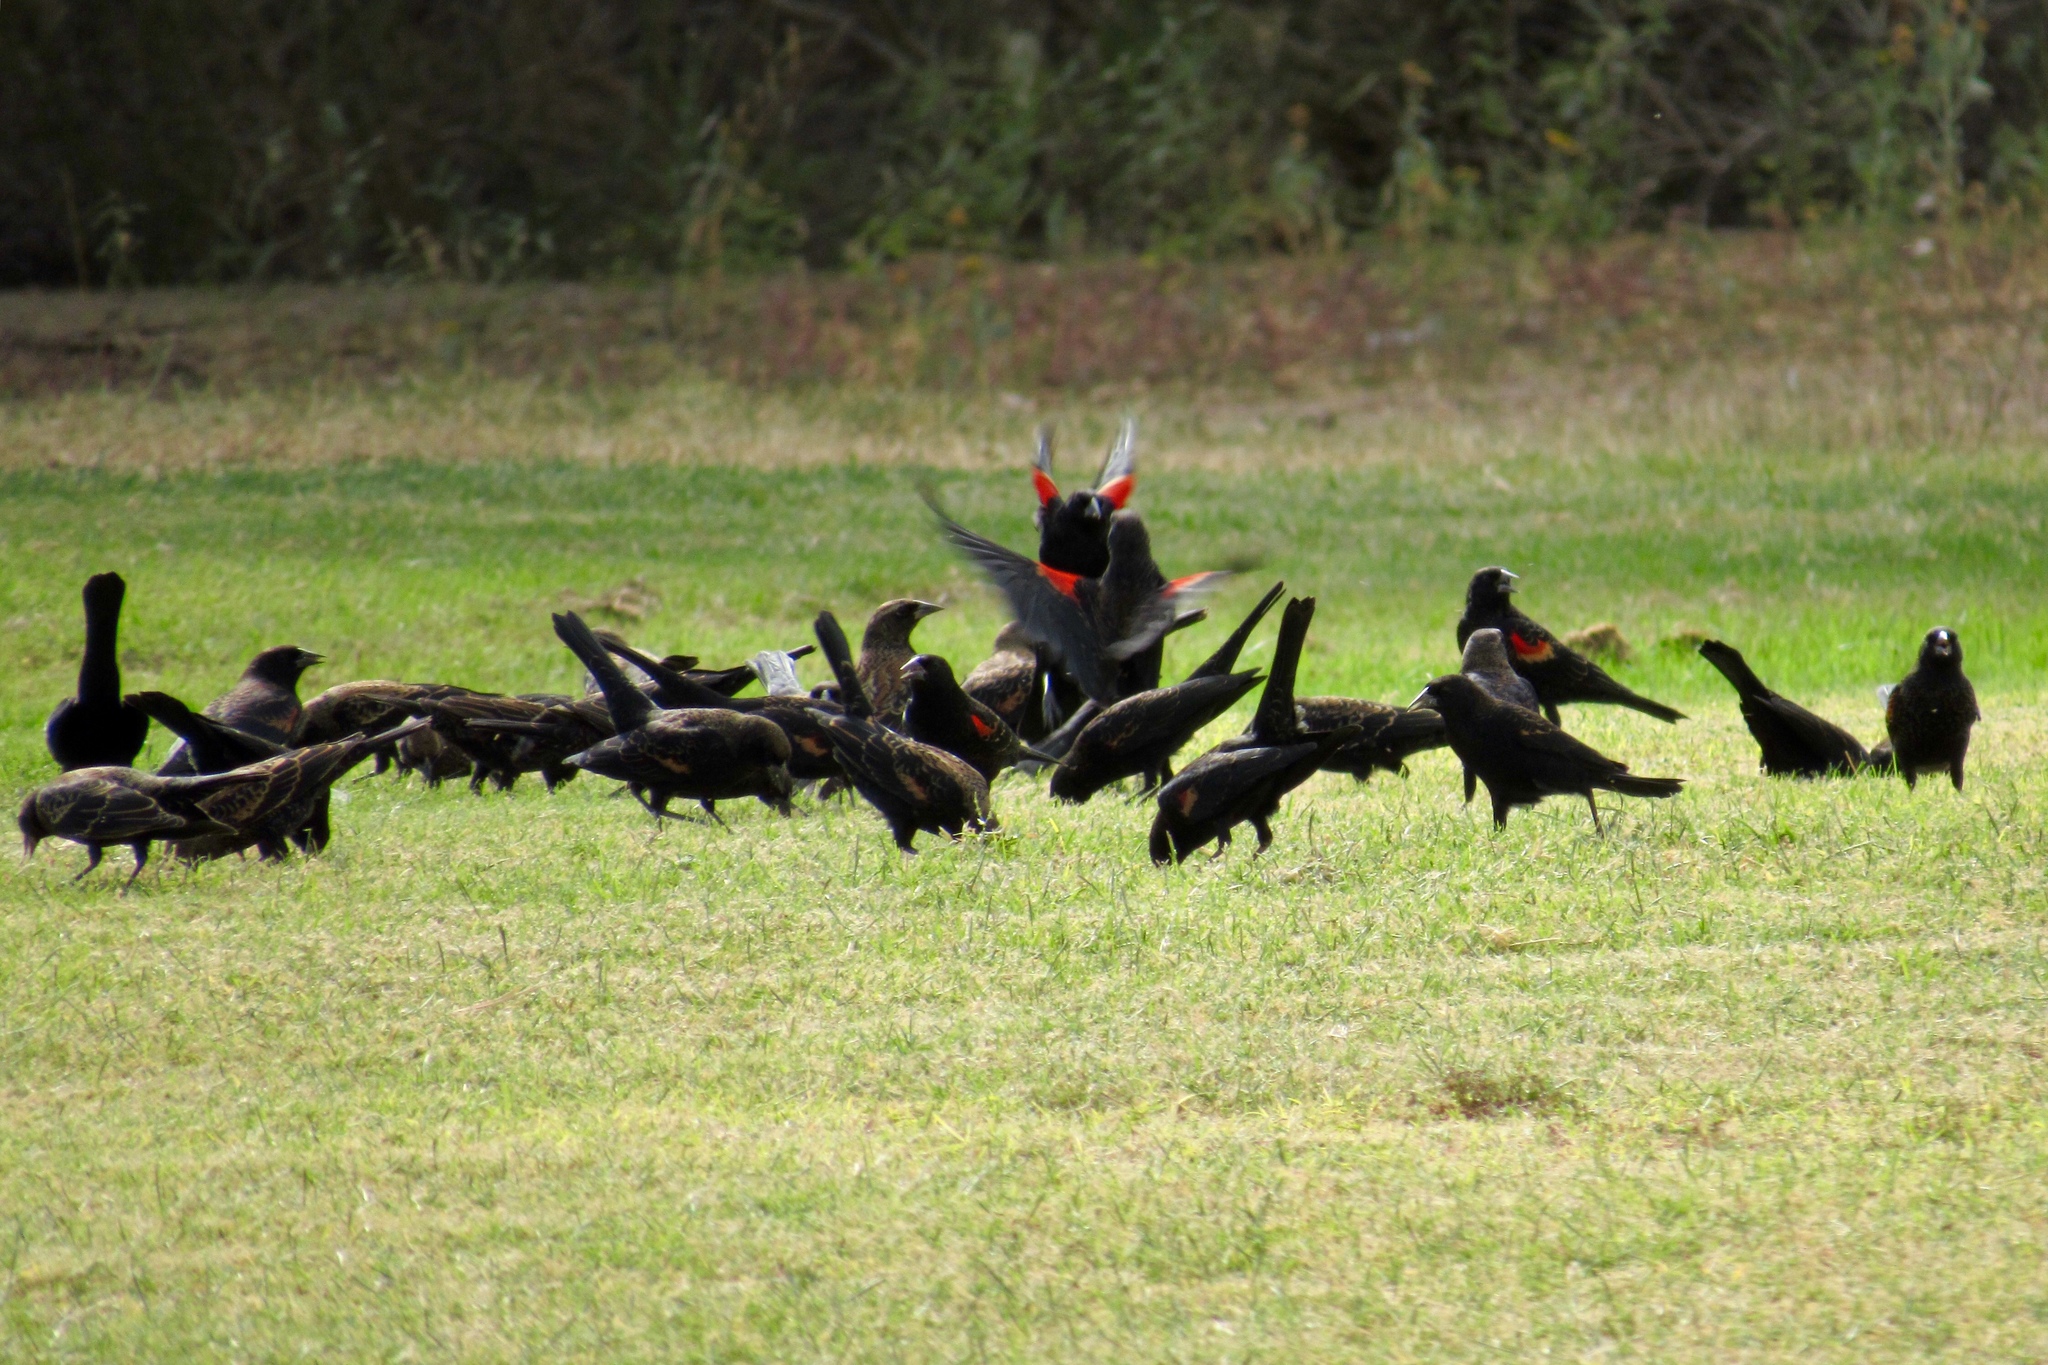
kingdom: Animalia
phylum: Chordata
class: Aves
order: Passeriformes
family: Icteridae
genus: Agelaius
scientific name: Agelaius phoeniceus
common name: Red-winged blackbird
